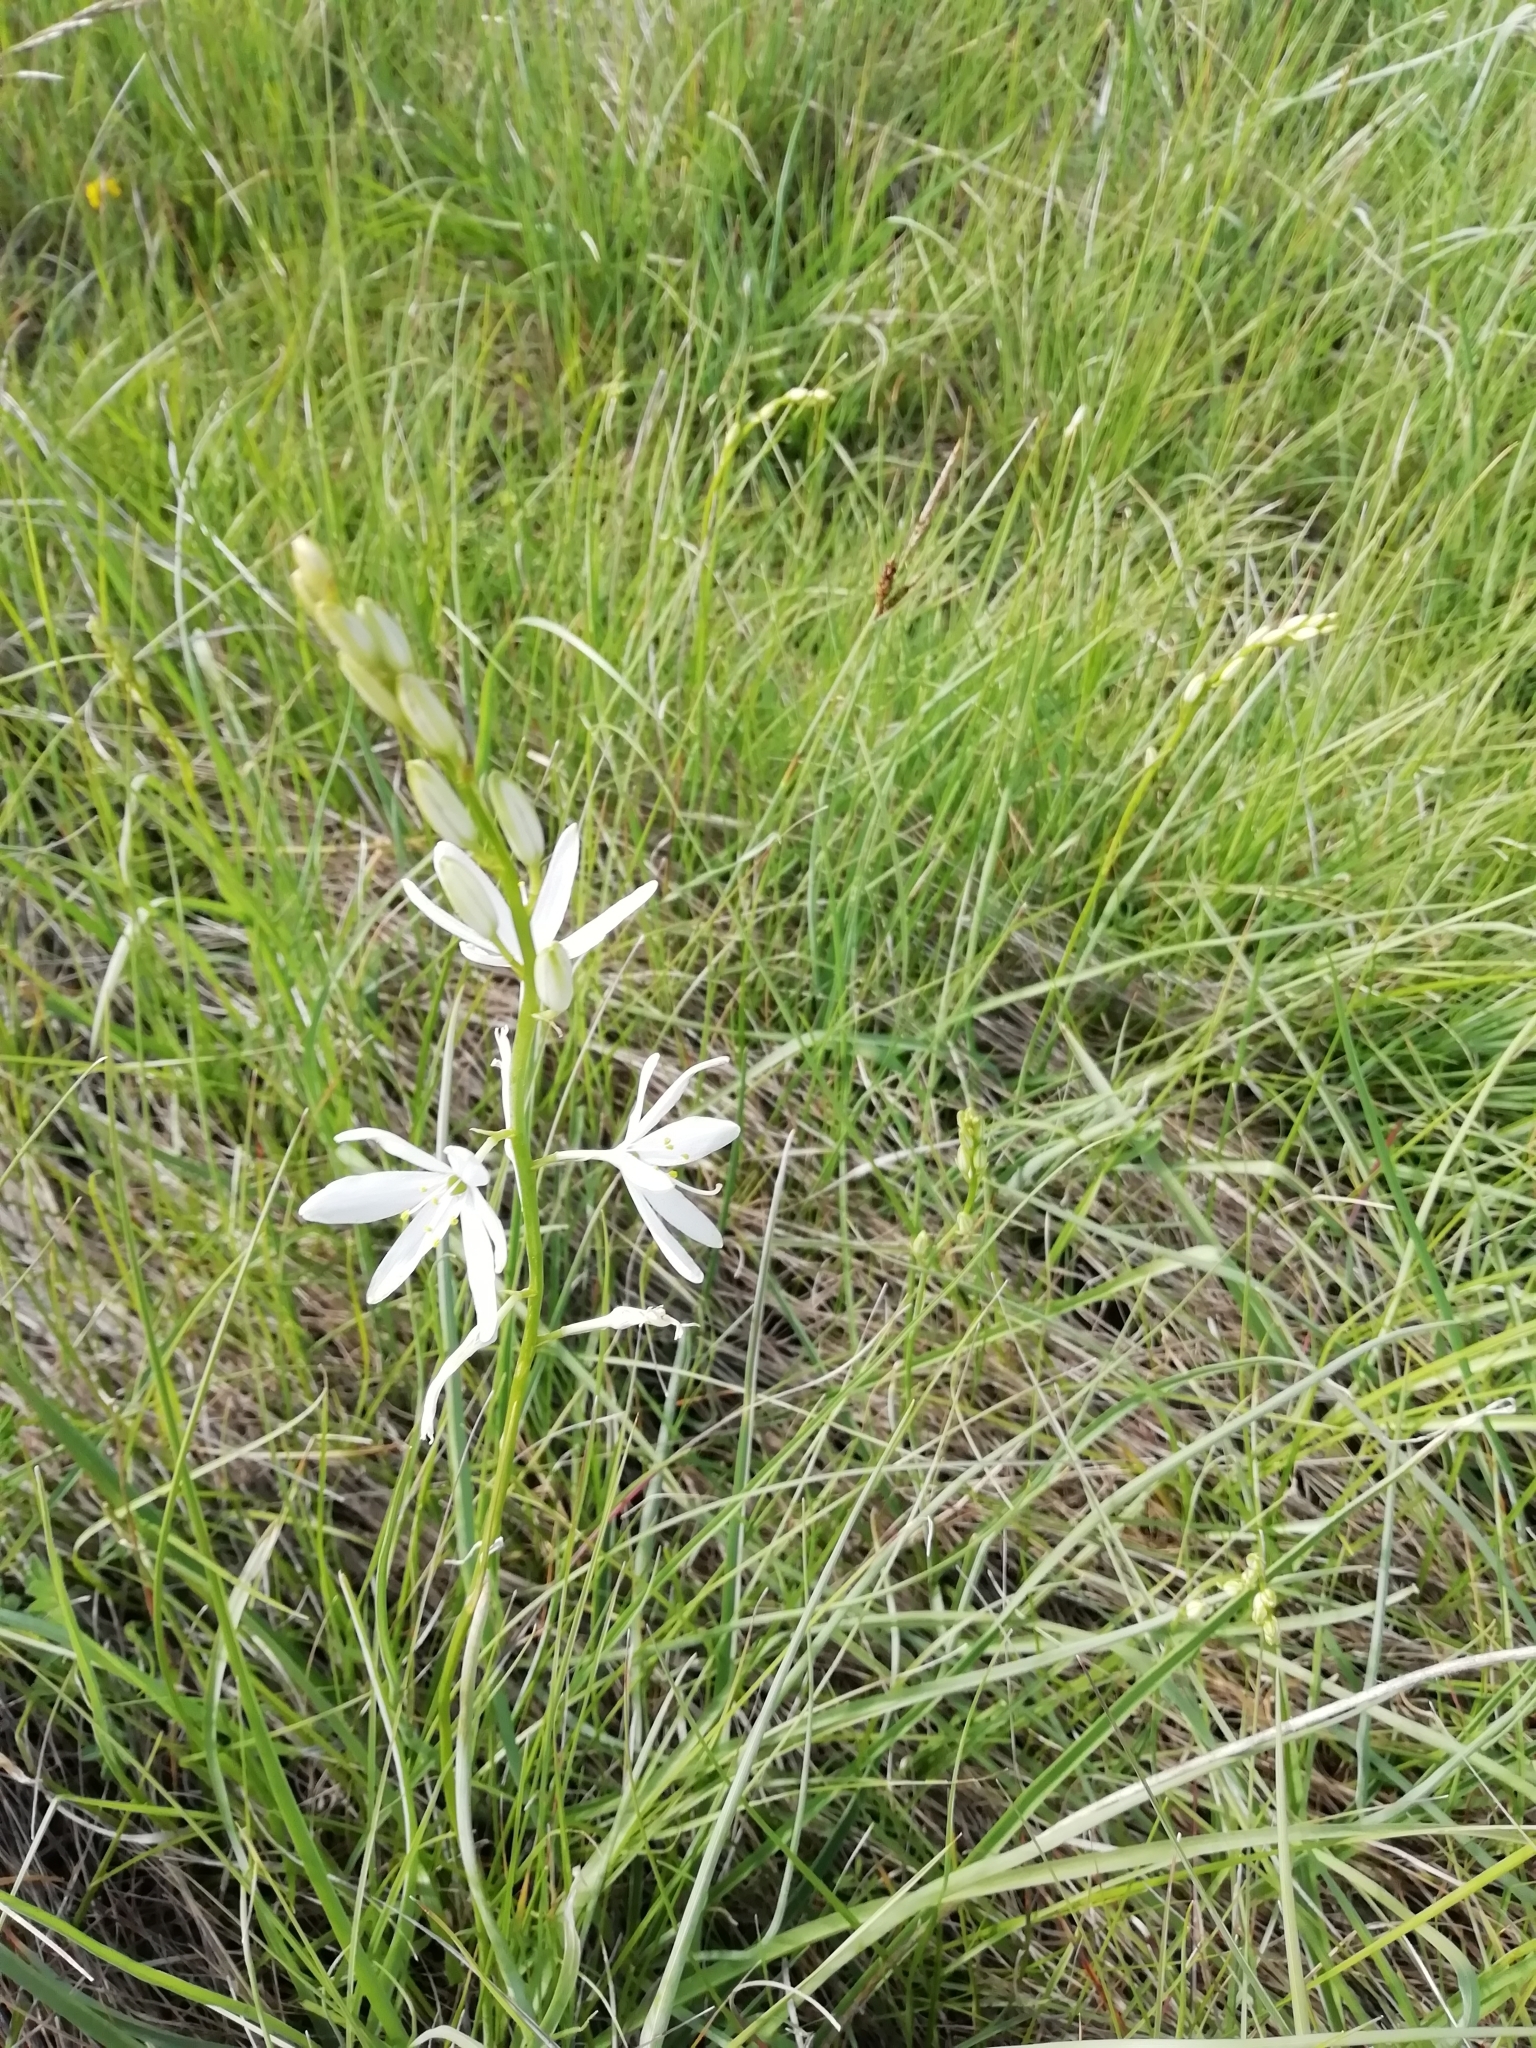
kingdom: Plantae
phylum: Tracheophyta
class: Liliopsida
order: Asparagales
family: Asparagaceae
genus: Anthericum
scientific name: Anthericum liliago
